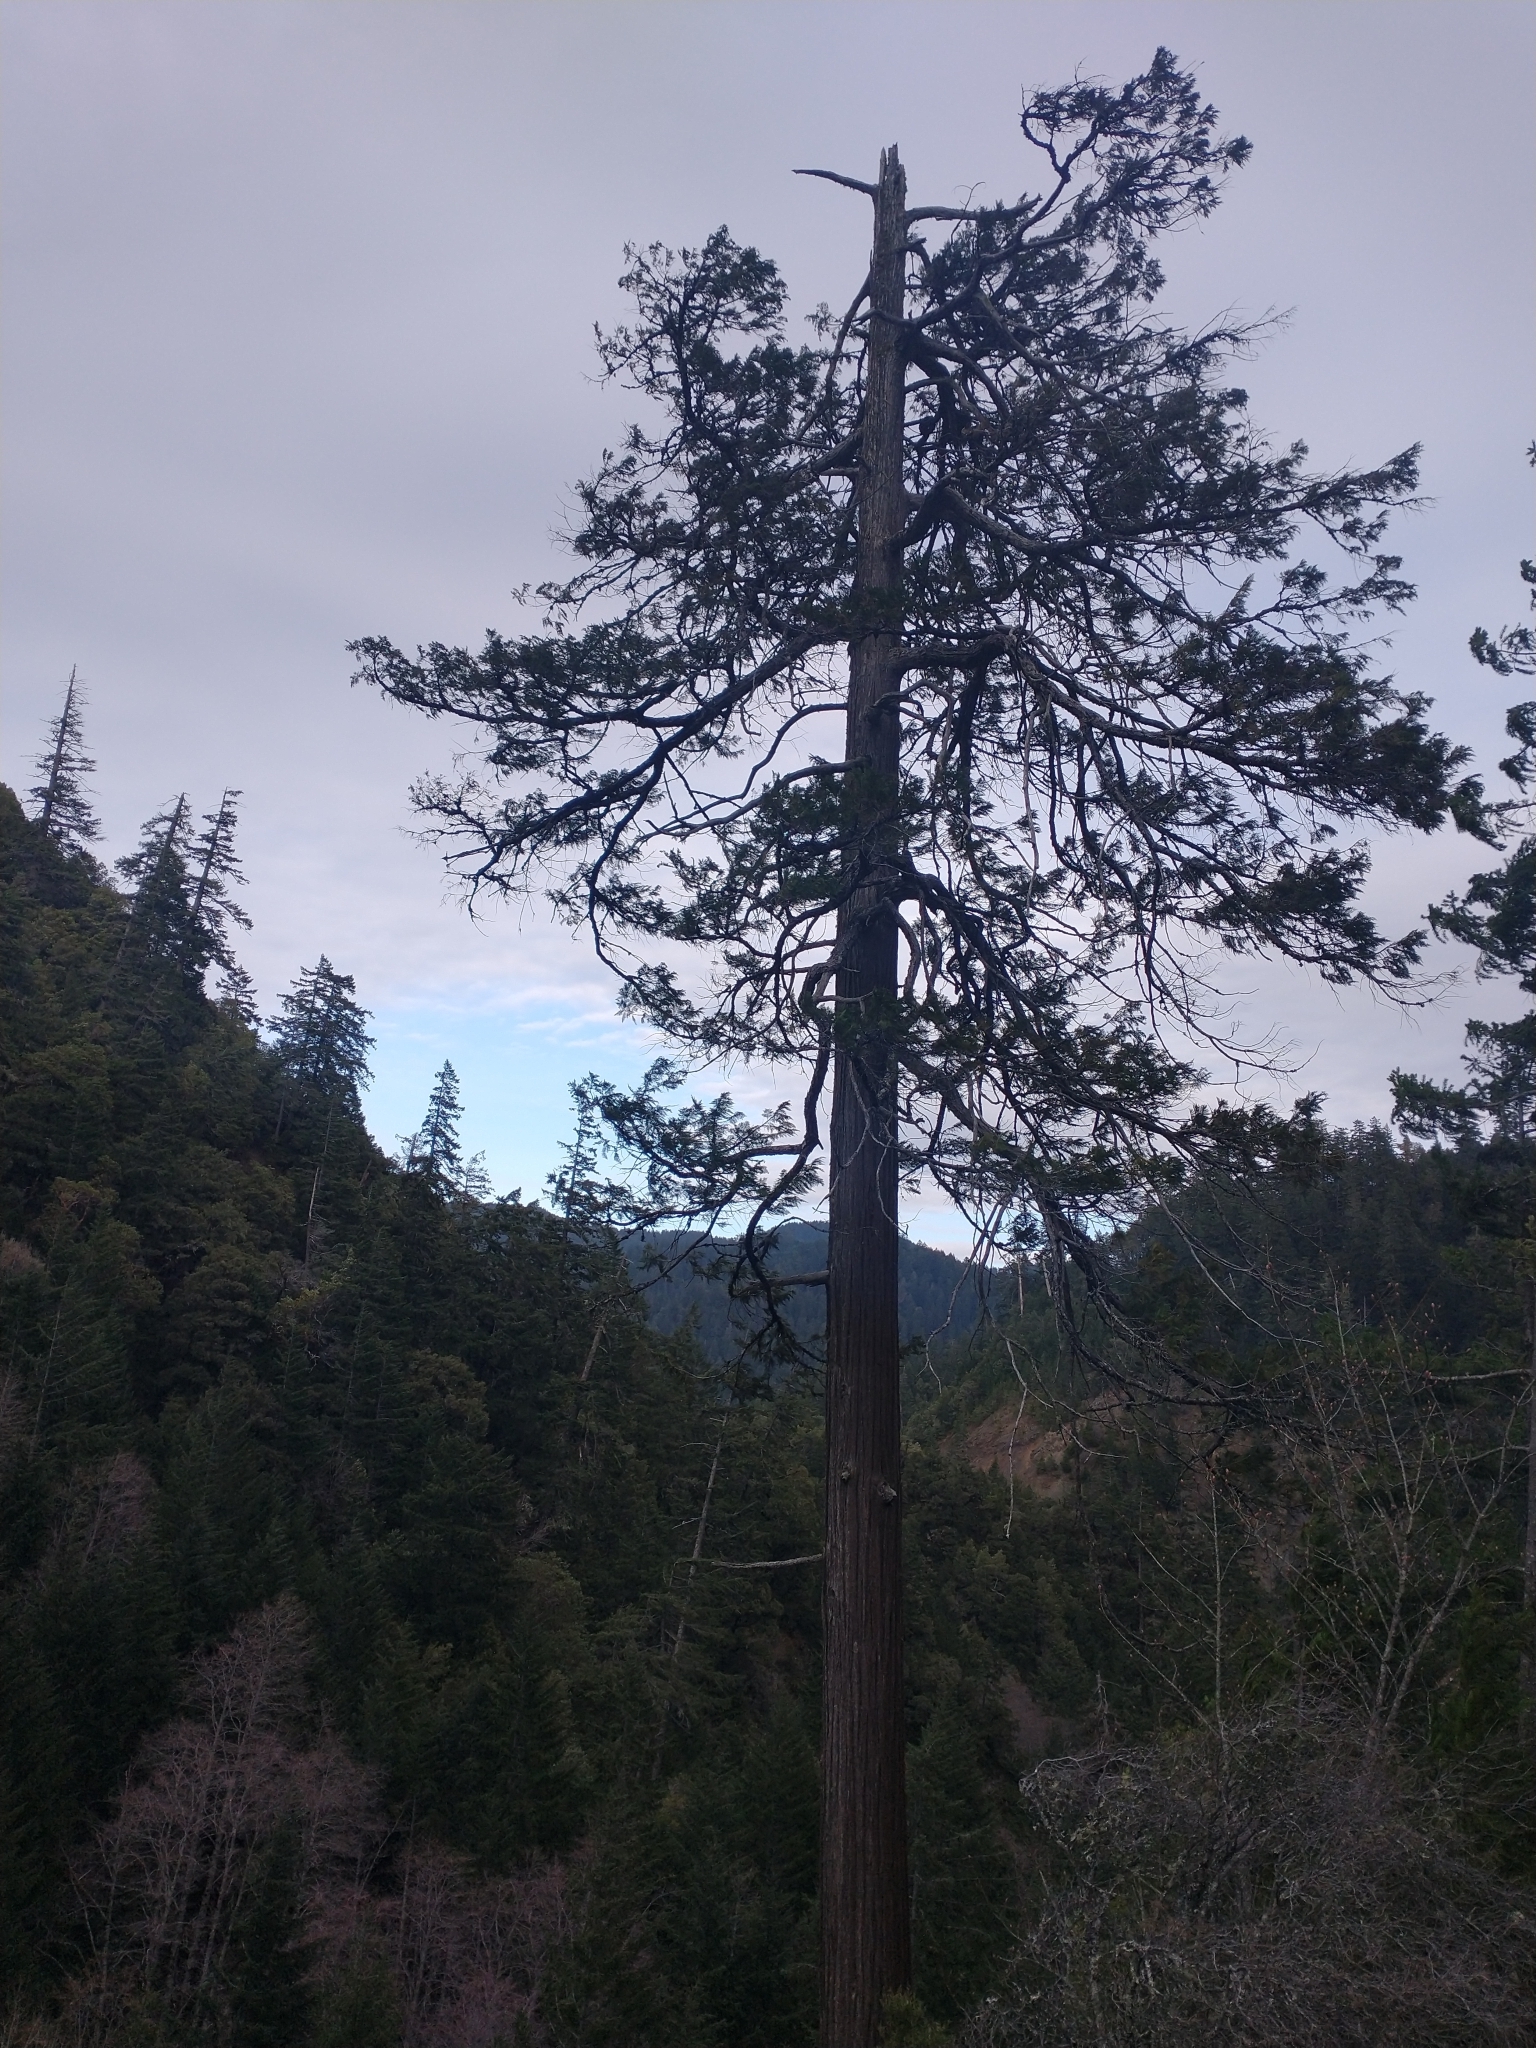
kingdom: Plantae
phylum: Tracheophyta
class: Pinopsida
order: Pinales
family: Cupressaceae
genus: Chamaecyparis
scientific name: Chamaecyparis lawsoniana
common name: Lawson's cypress
